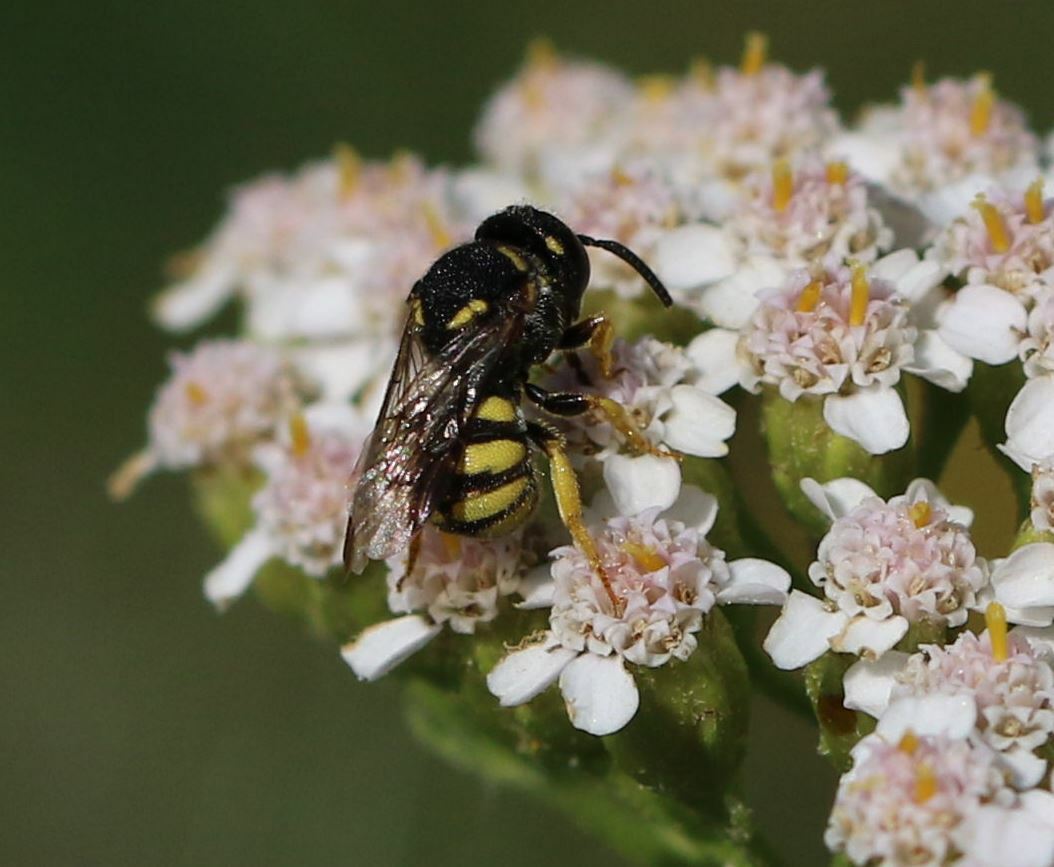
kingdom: Animalia
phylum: Arthropoda
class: Insecta
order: Hymenoptera
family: Megachilidae
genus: Stelis
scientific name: Stelis signata
